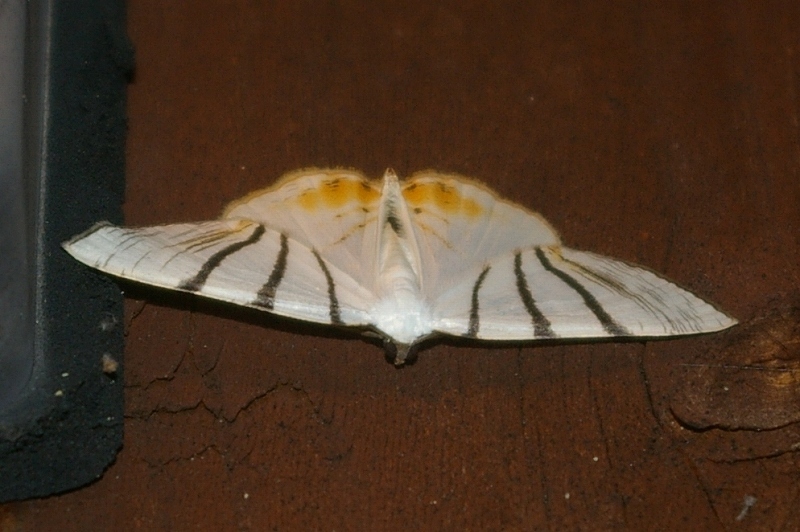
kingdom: Animalia
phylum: Arthropoda
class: Insecta
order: Lepidoptera
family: Geometridae
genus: Myrteta
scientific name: Myrteta angelica
